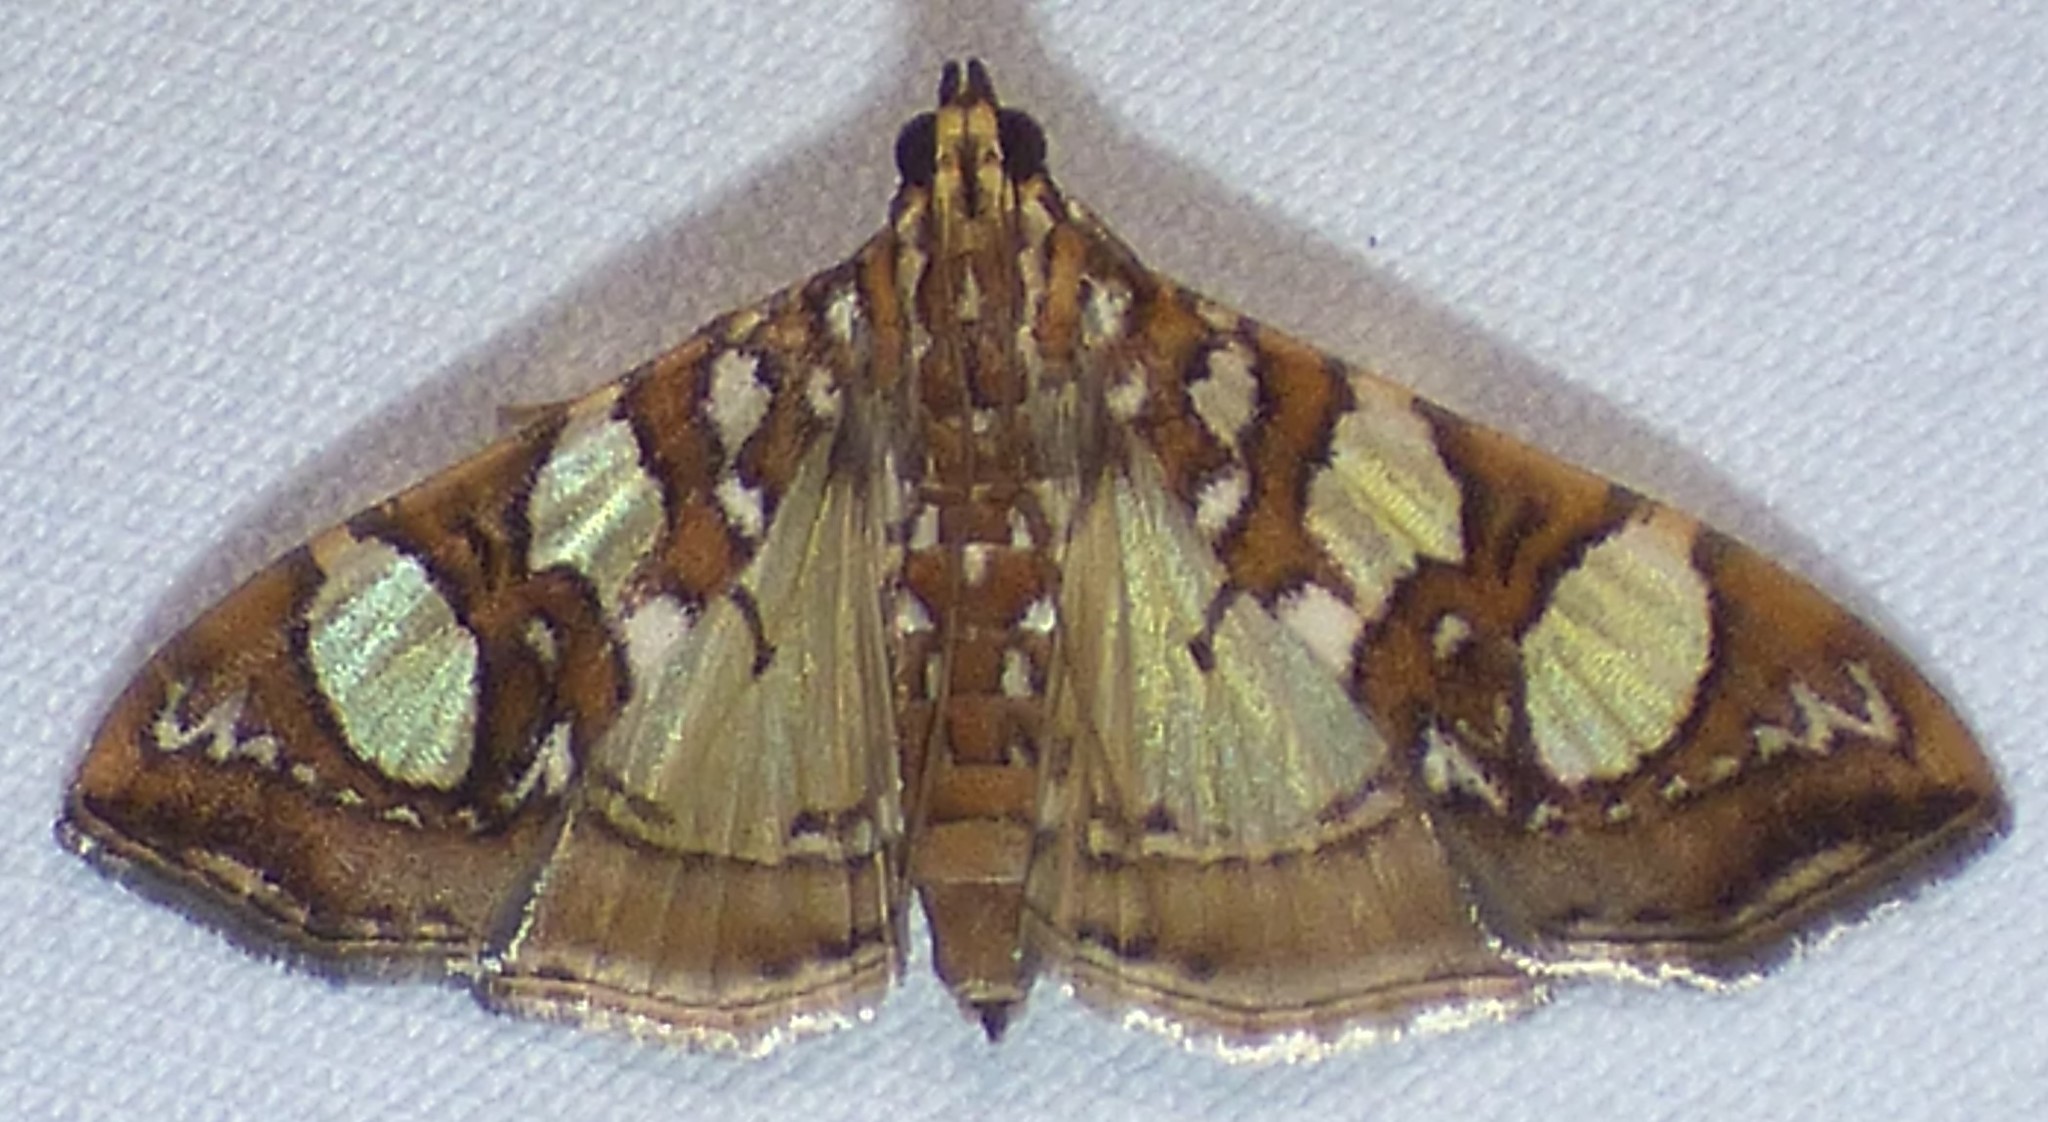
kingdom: Animalia
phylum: Arthropoda
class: Insecta
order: Lepidoptera
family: Crambidae
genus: Glyphodes
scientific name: Glyphodes sibillalis
